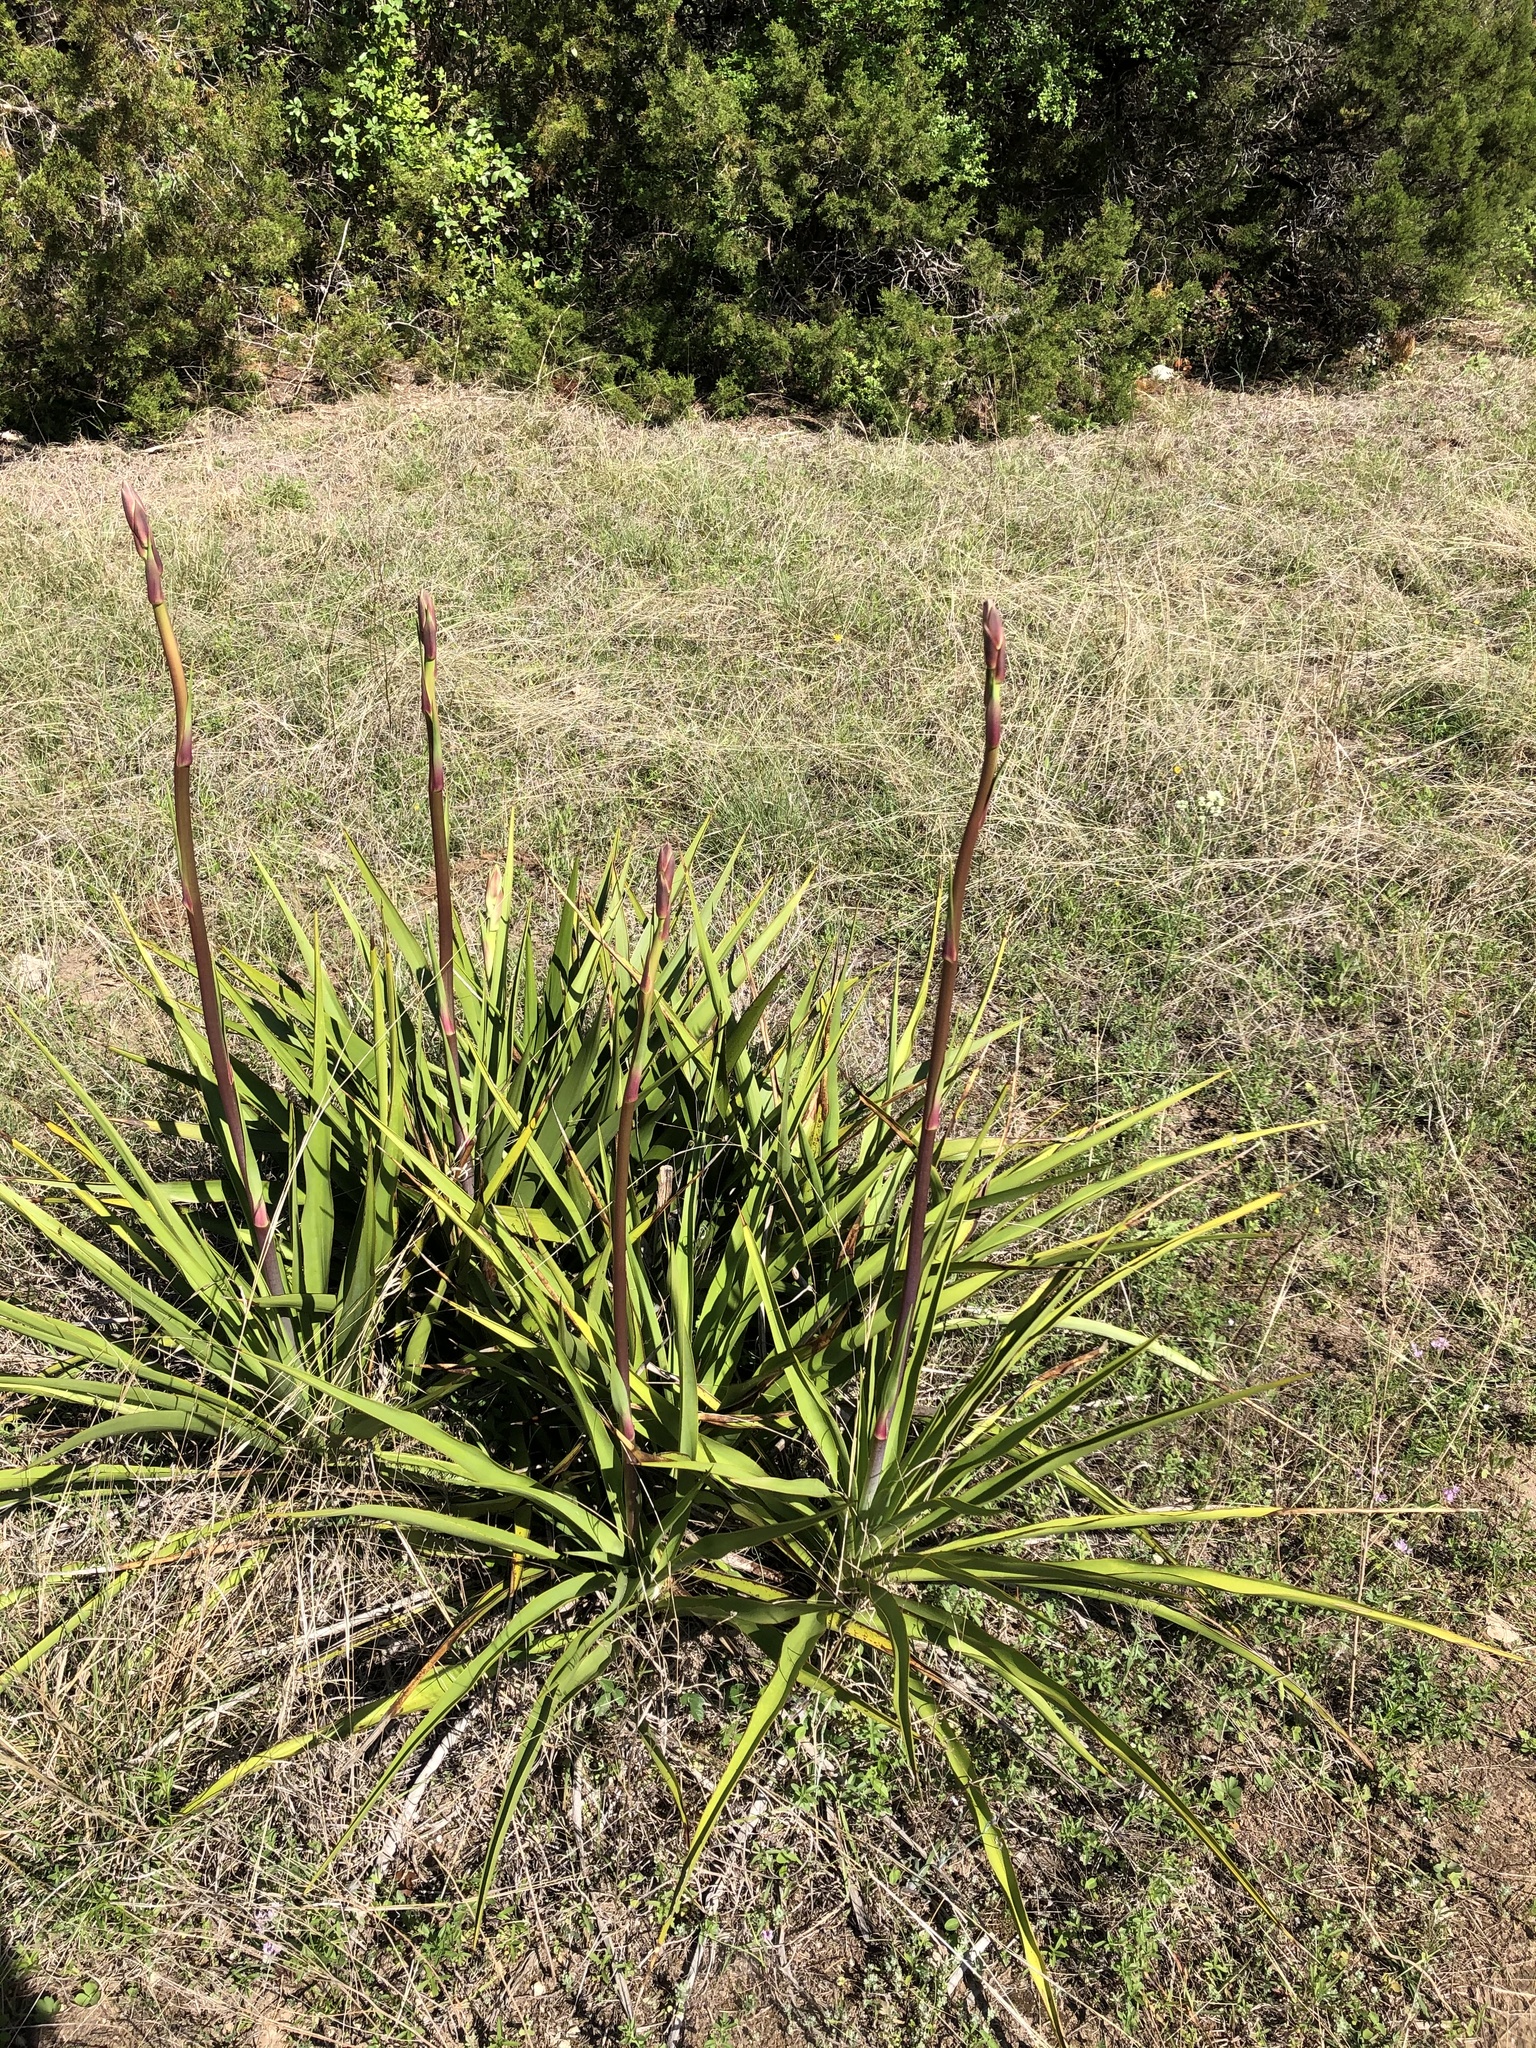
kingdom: Plantae
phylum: Tracheophyta
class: Liliopsida
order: Asparagales
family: Asparagaceae
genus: Yucca
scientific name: Yucca rupicola
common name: Twisted-leaf spanish-dagger
